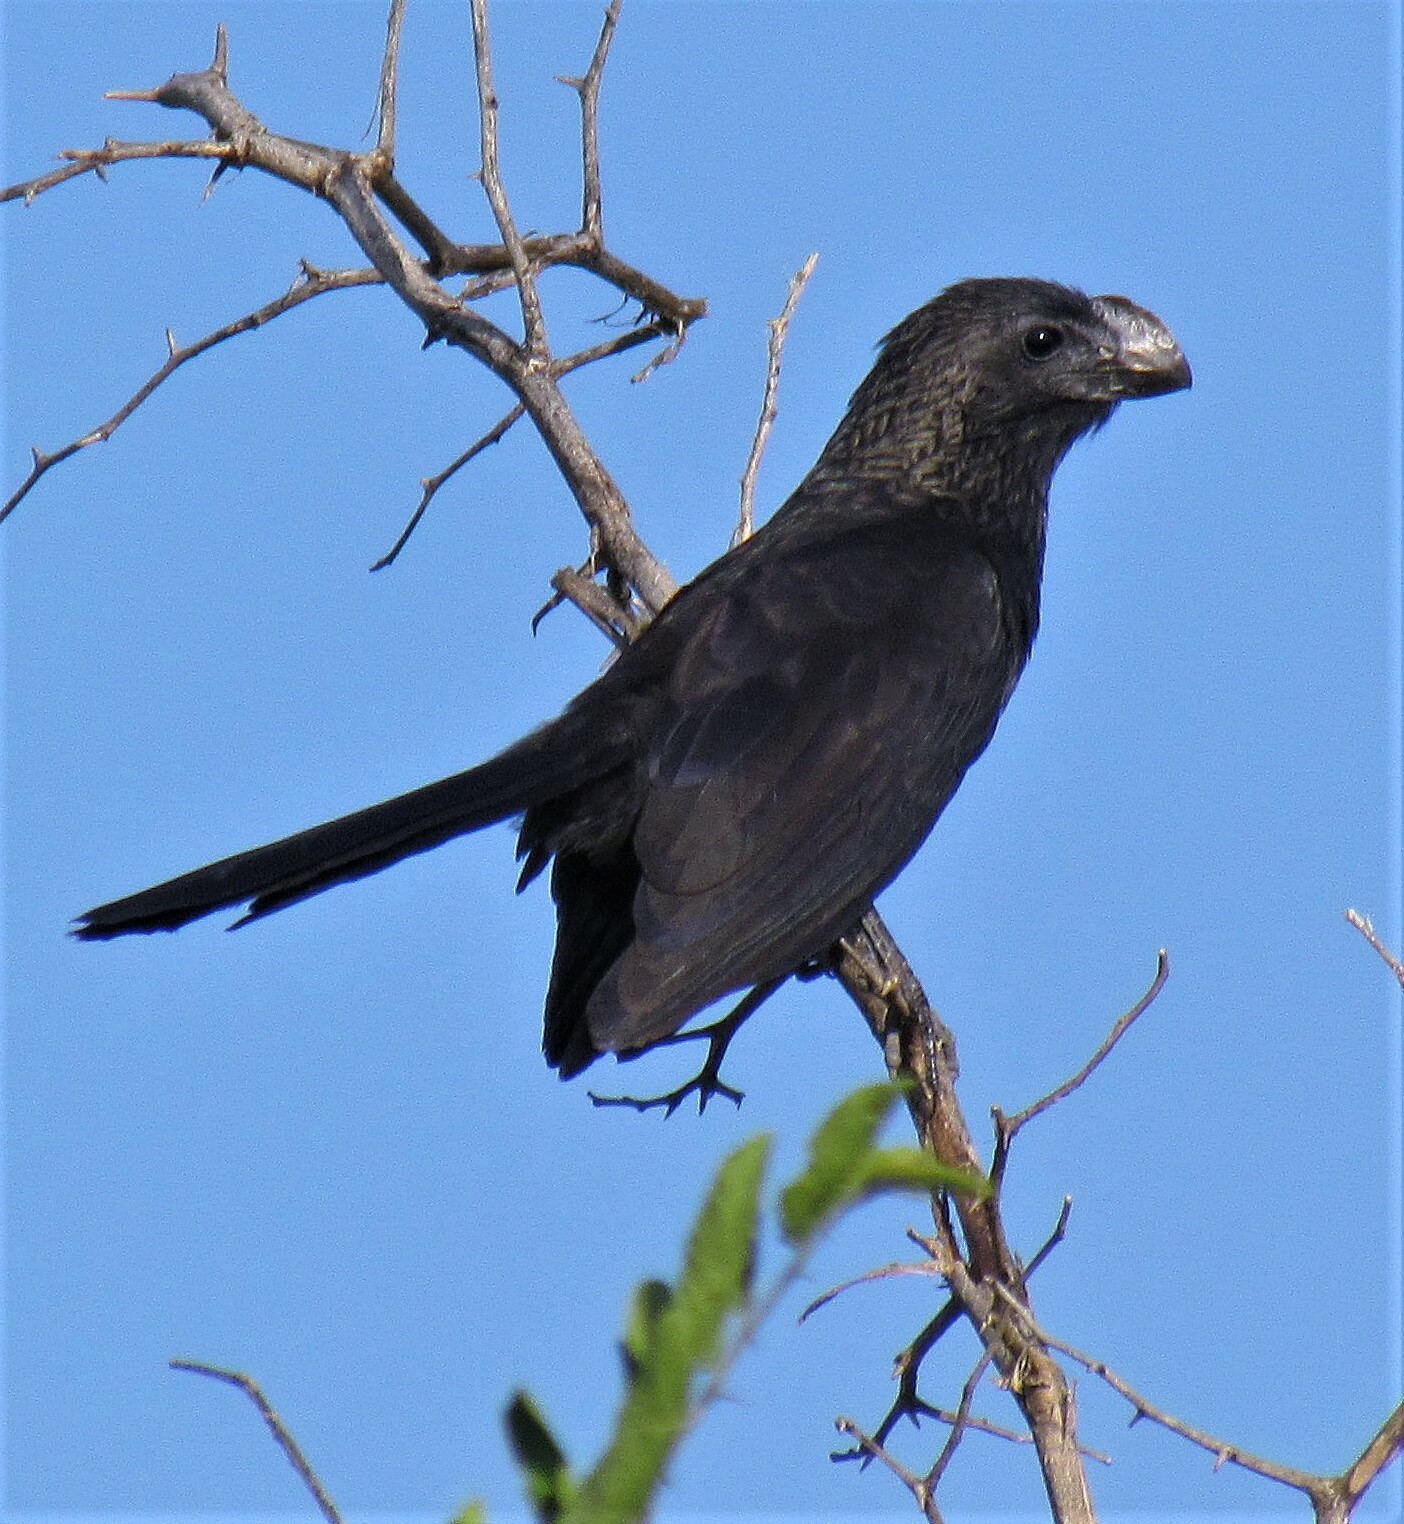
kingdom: Animalia
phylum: Chordata
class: Aves
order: Cuculiformes
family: Cuculidae
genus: Crotophaga
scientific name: Crotophaga ani
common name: Smooth-billed ani
